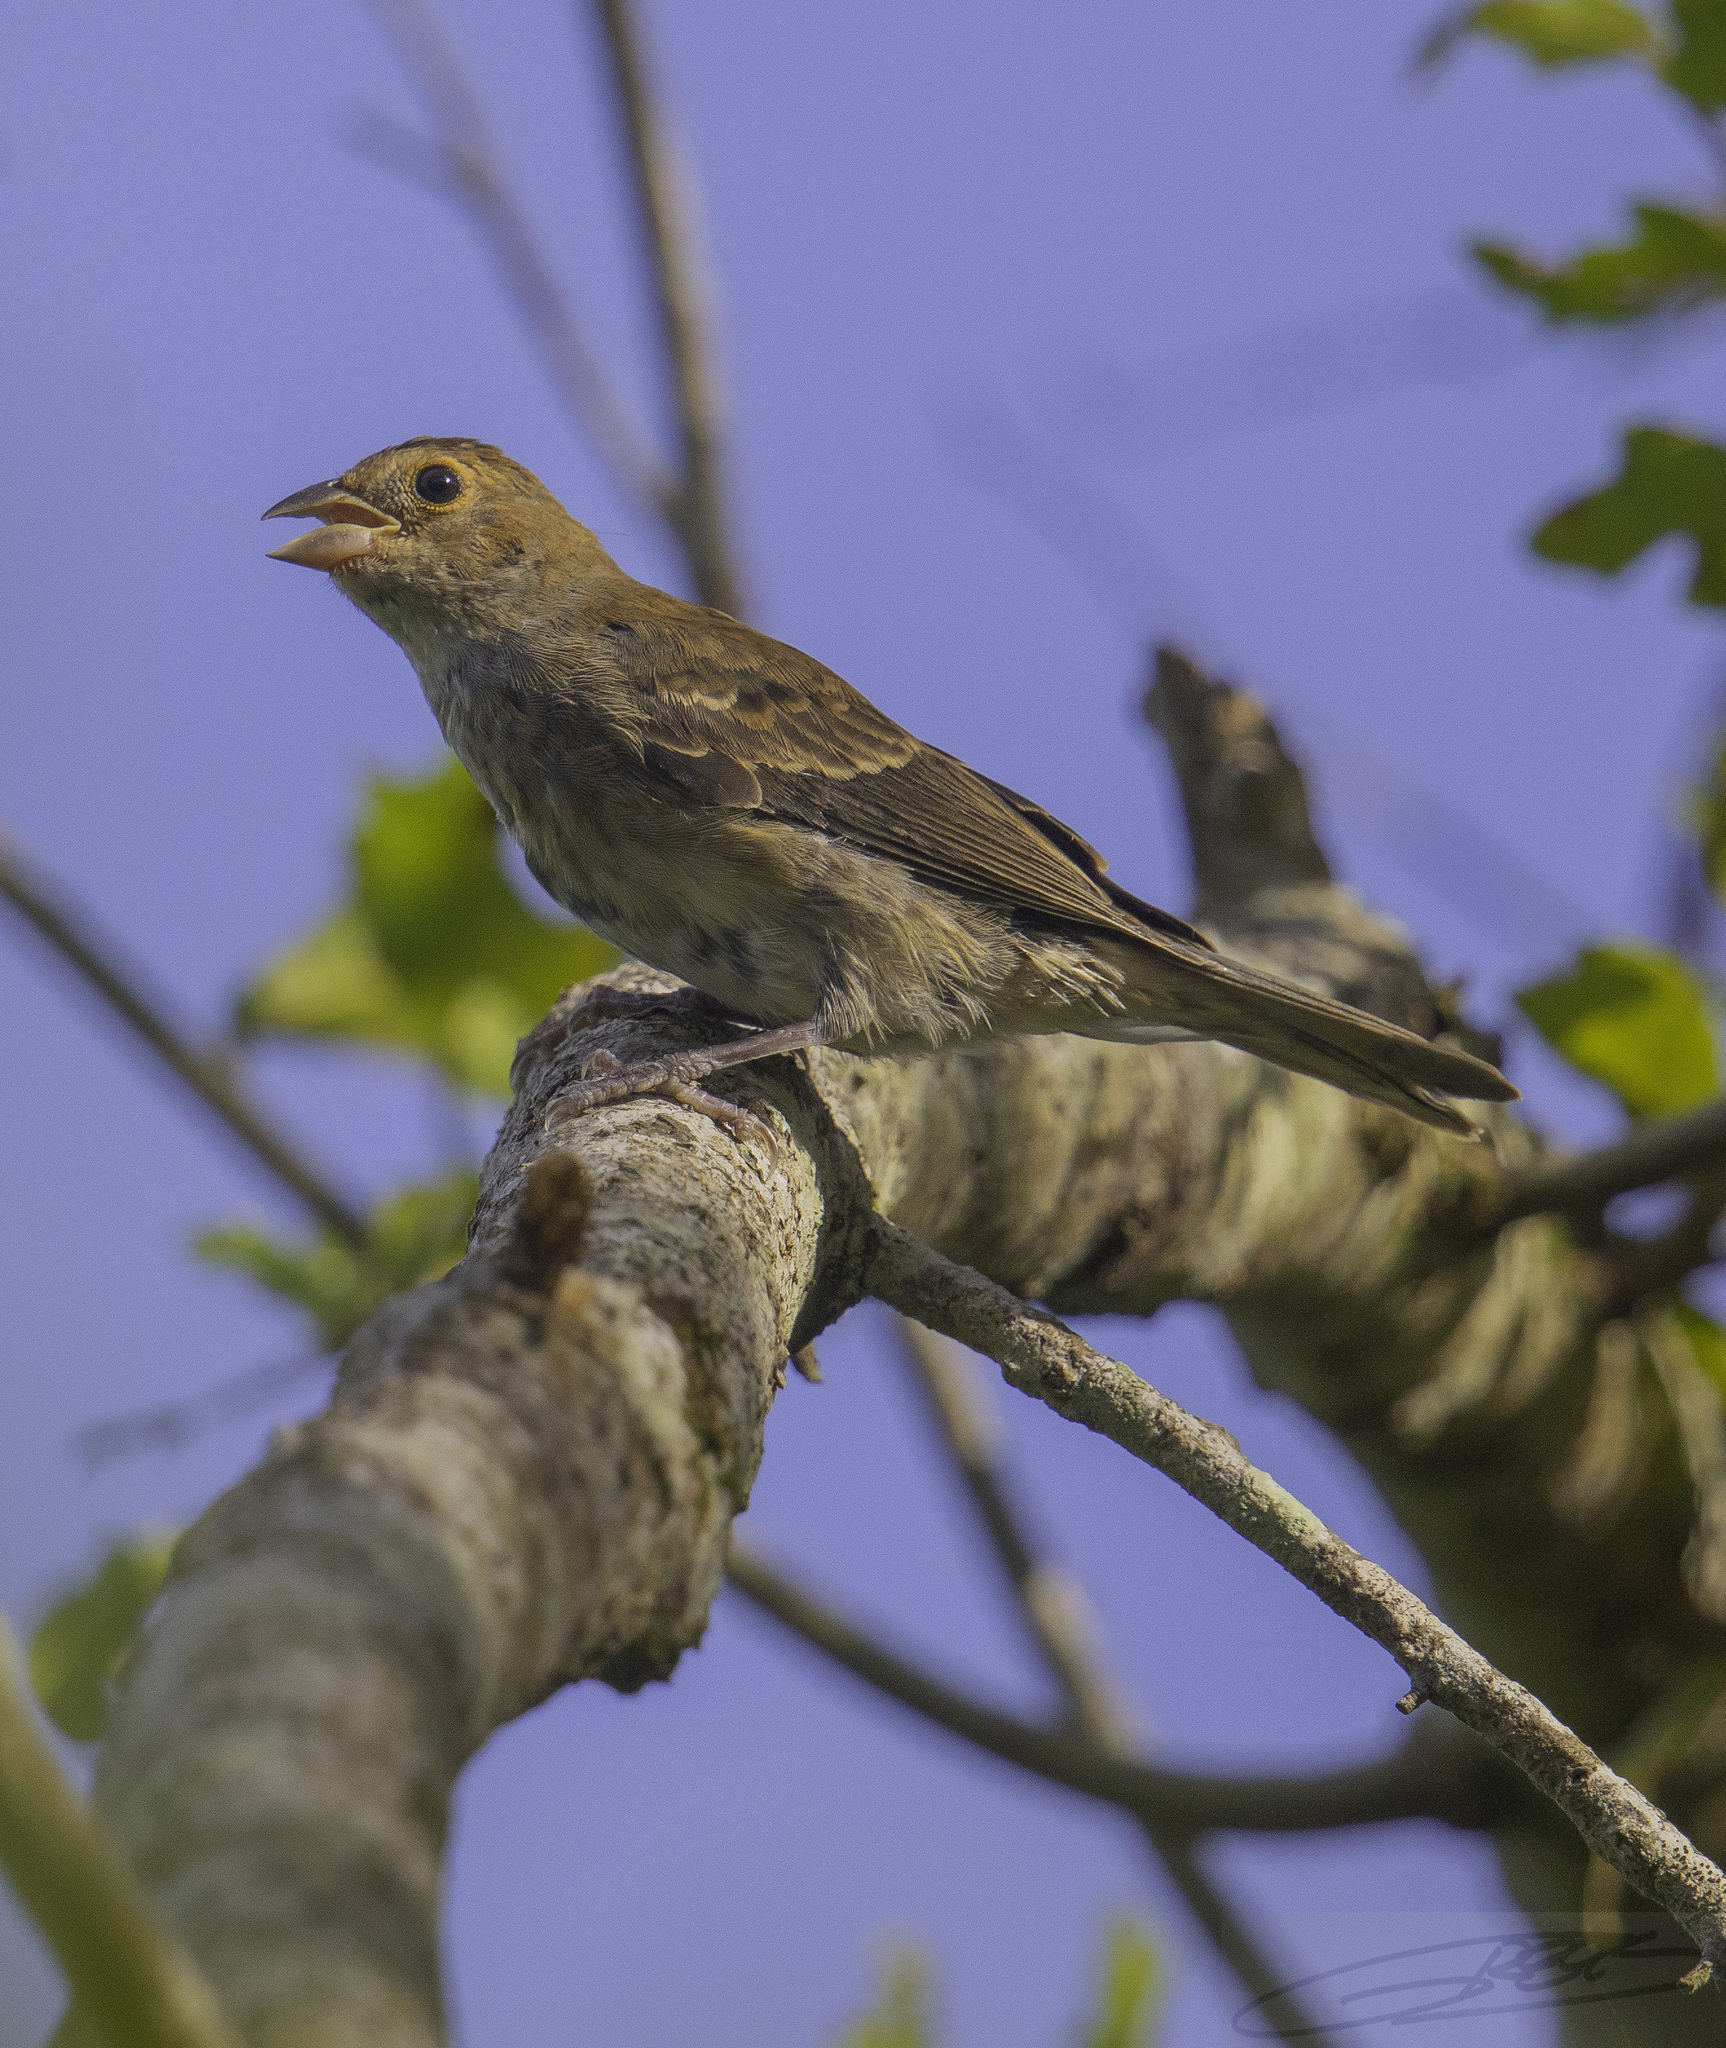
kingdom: Animalia
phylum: Chordata
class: Aves
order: Passeriformes
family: Cardinalidae
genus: Passerina
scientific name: Passerina cyanea
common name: Indigo bunting
